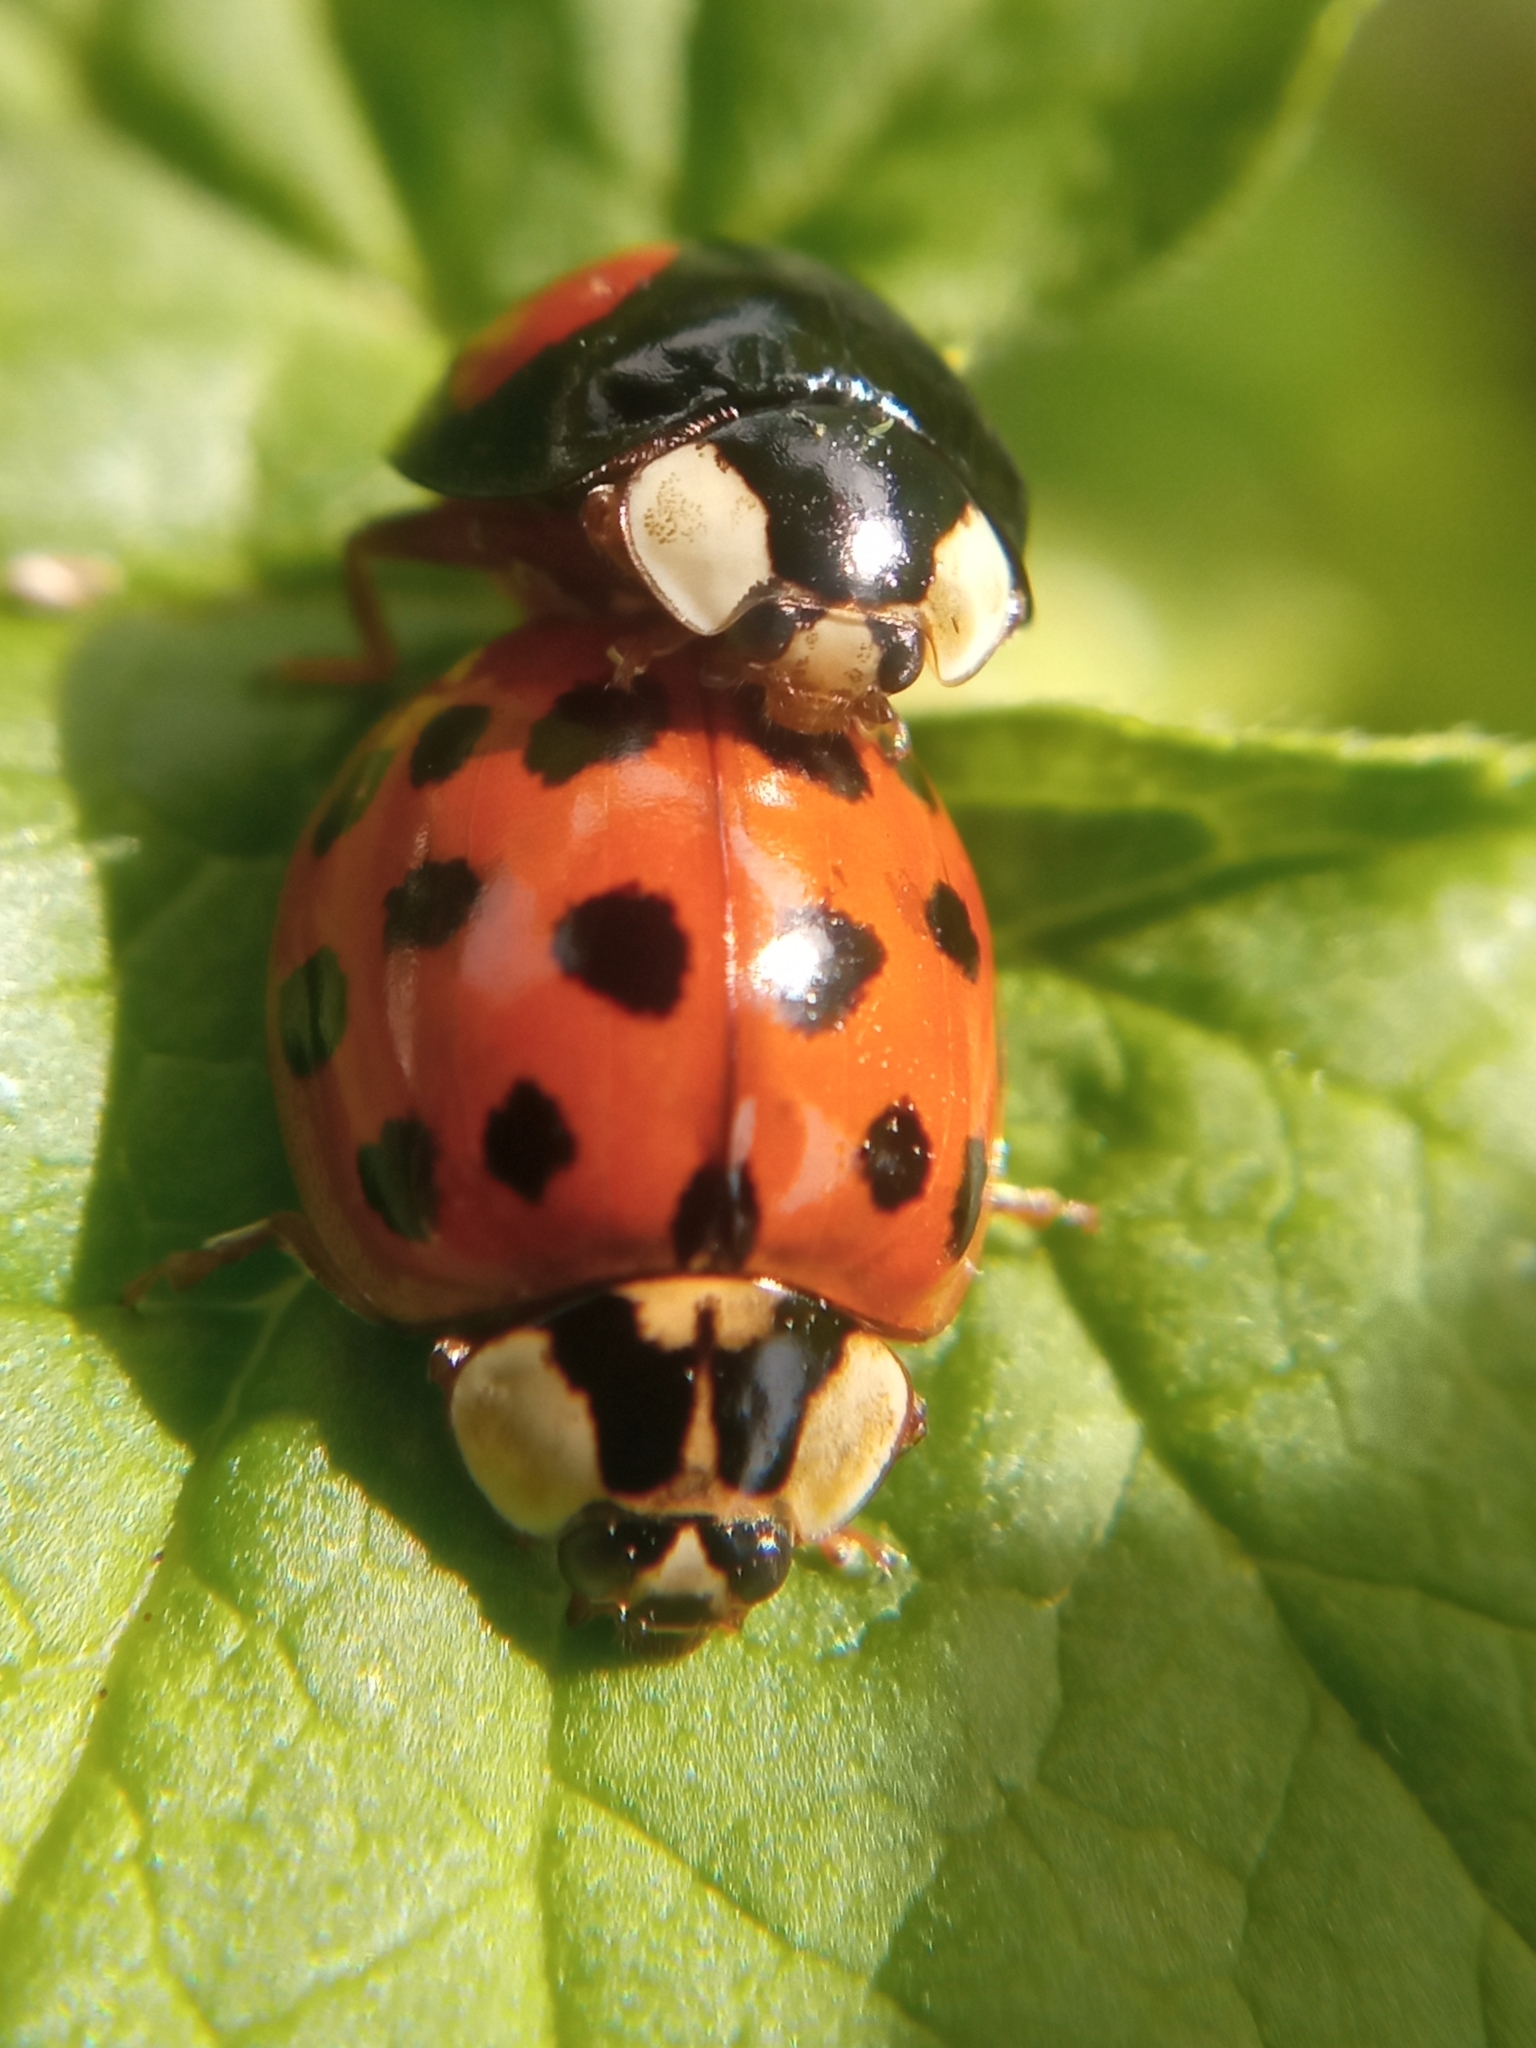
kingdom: Animalia
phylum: Arthropoda
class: Insecta
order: Coleoptera
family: Coccinellidae
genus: Harmonia
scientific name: Harmonia axyridis
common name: Harlequin ladybird
